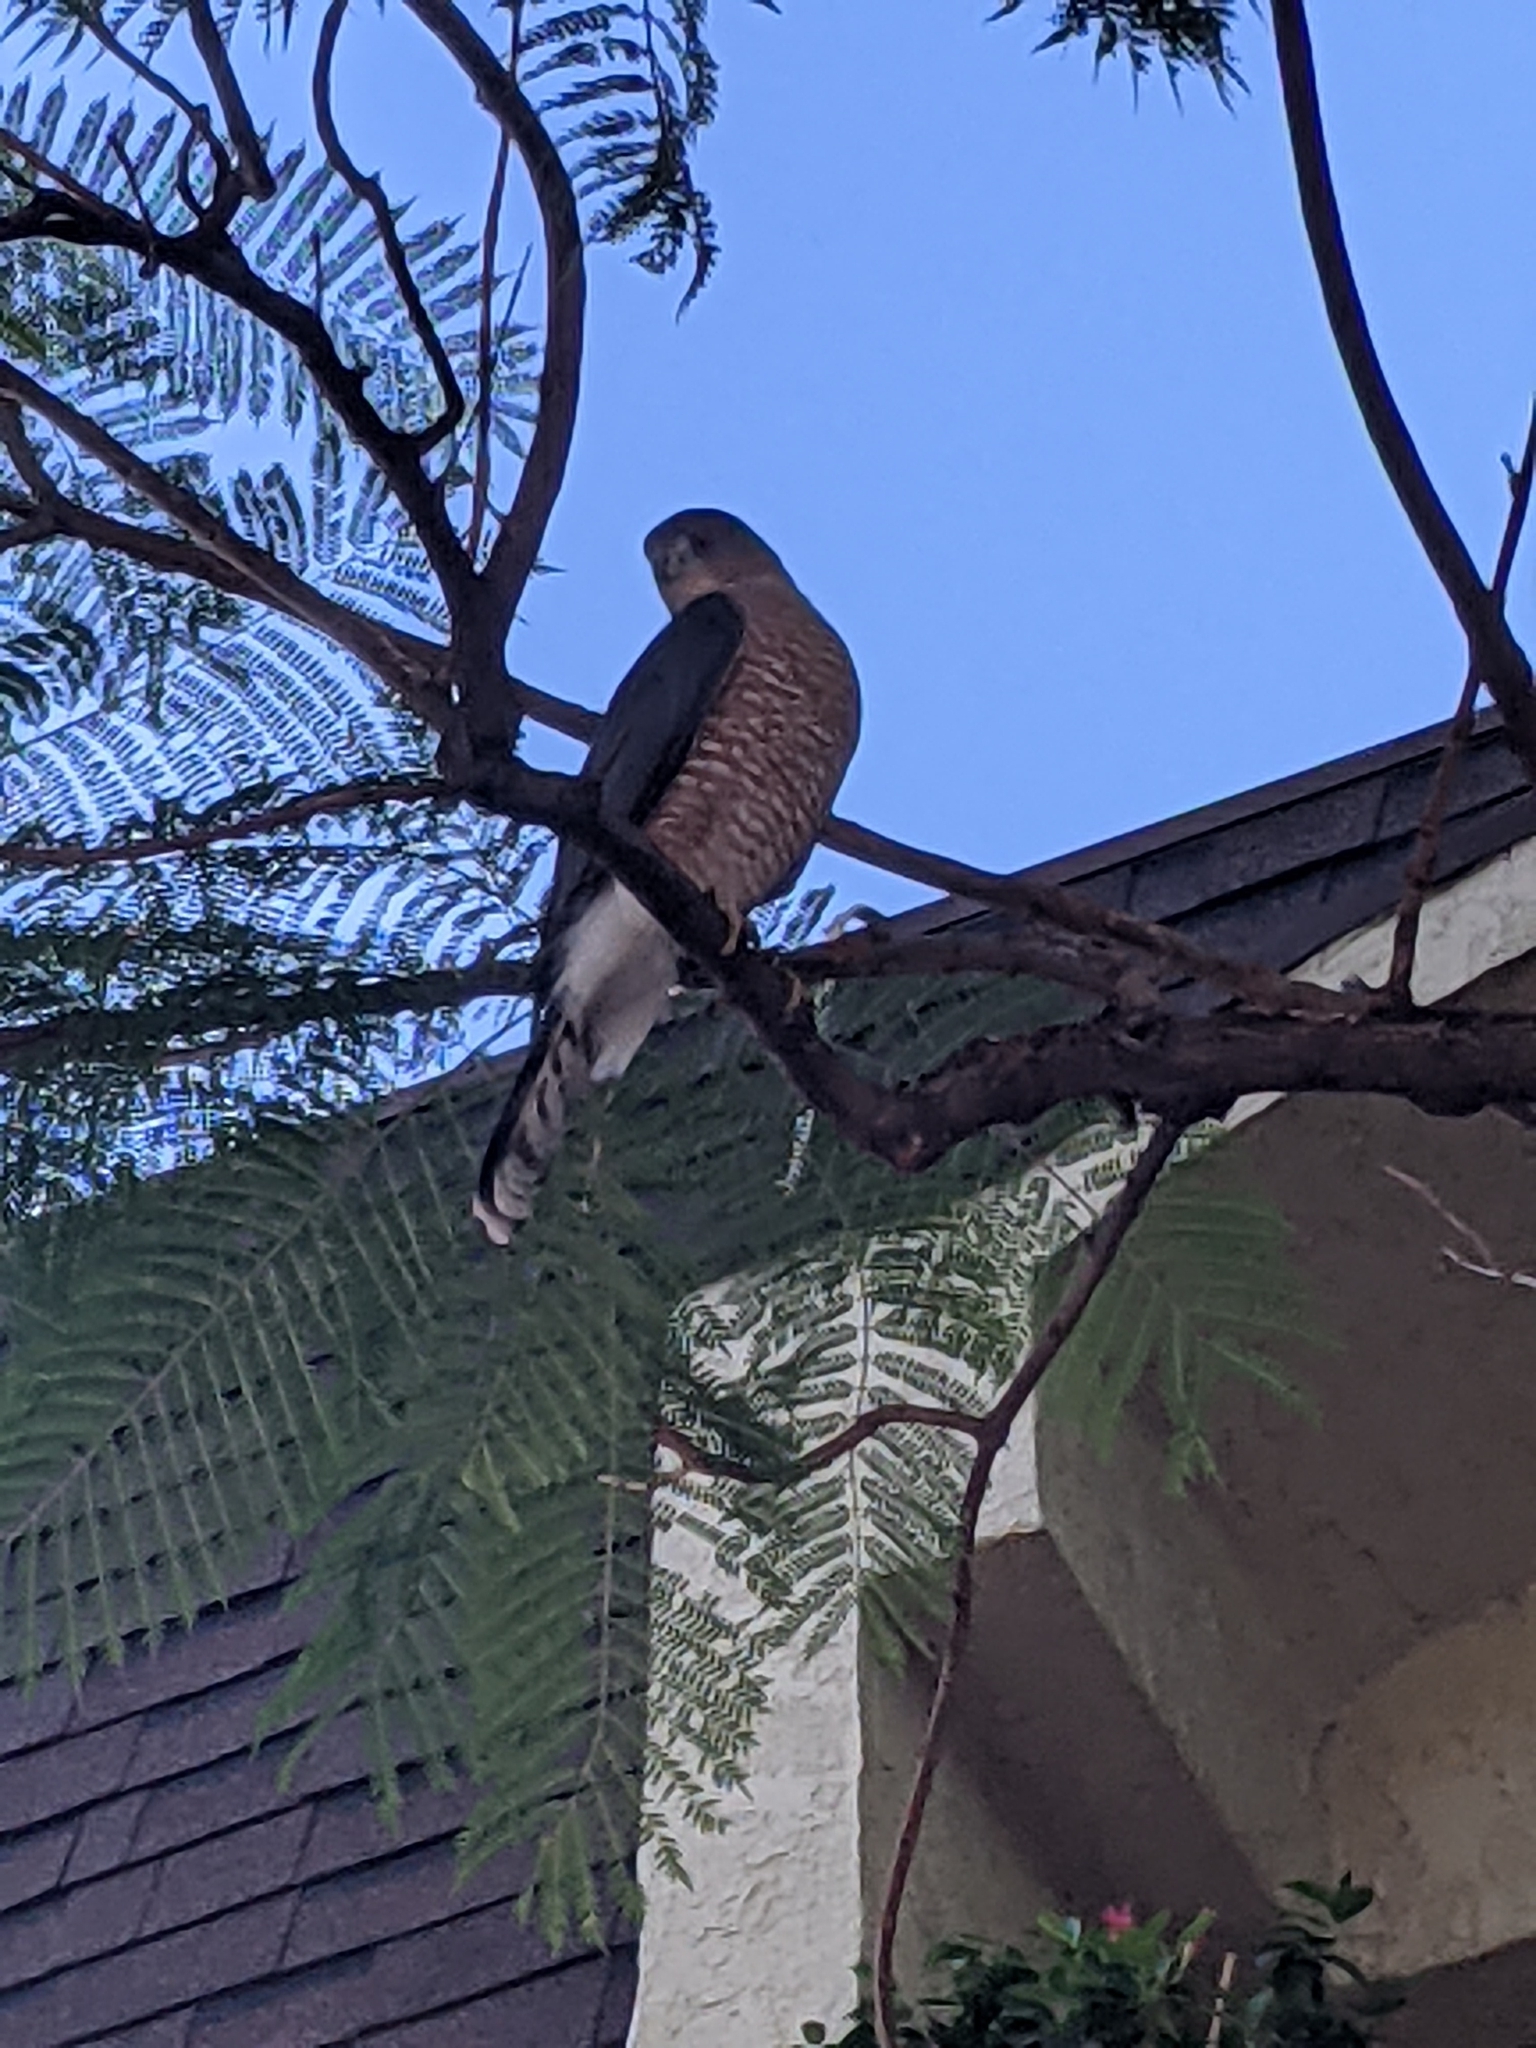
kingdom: Animalia
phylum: Chordata
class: Aves
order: Accipitriformes
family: Accipitridae
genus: Accipiter
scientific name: Accipiter cooperii
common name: Cooper's hawk
